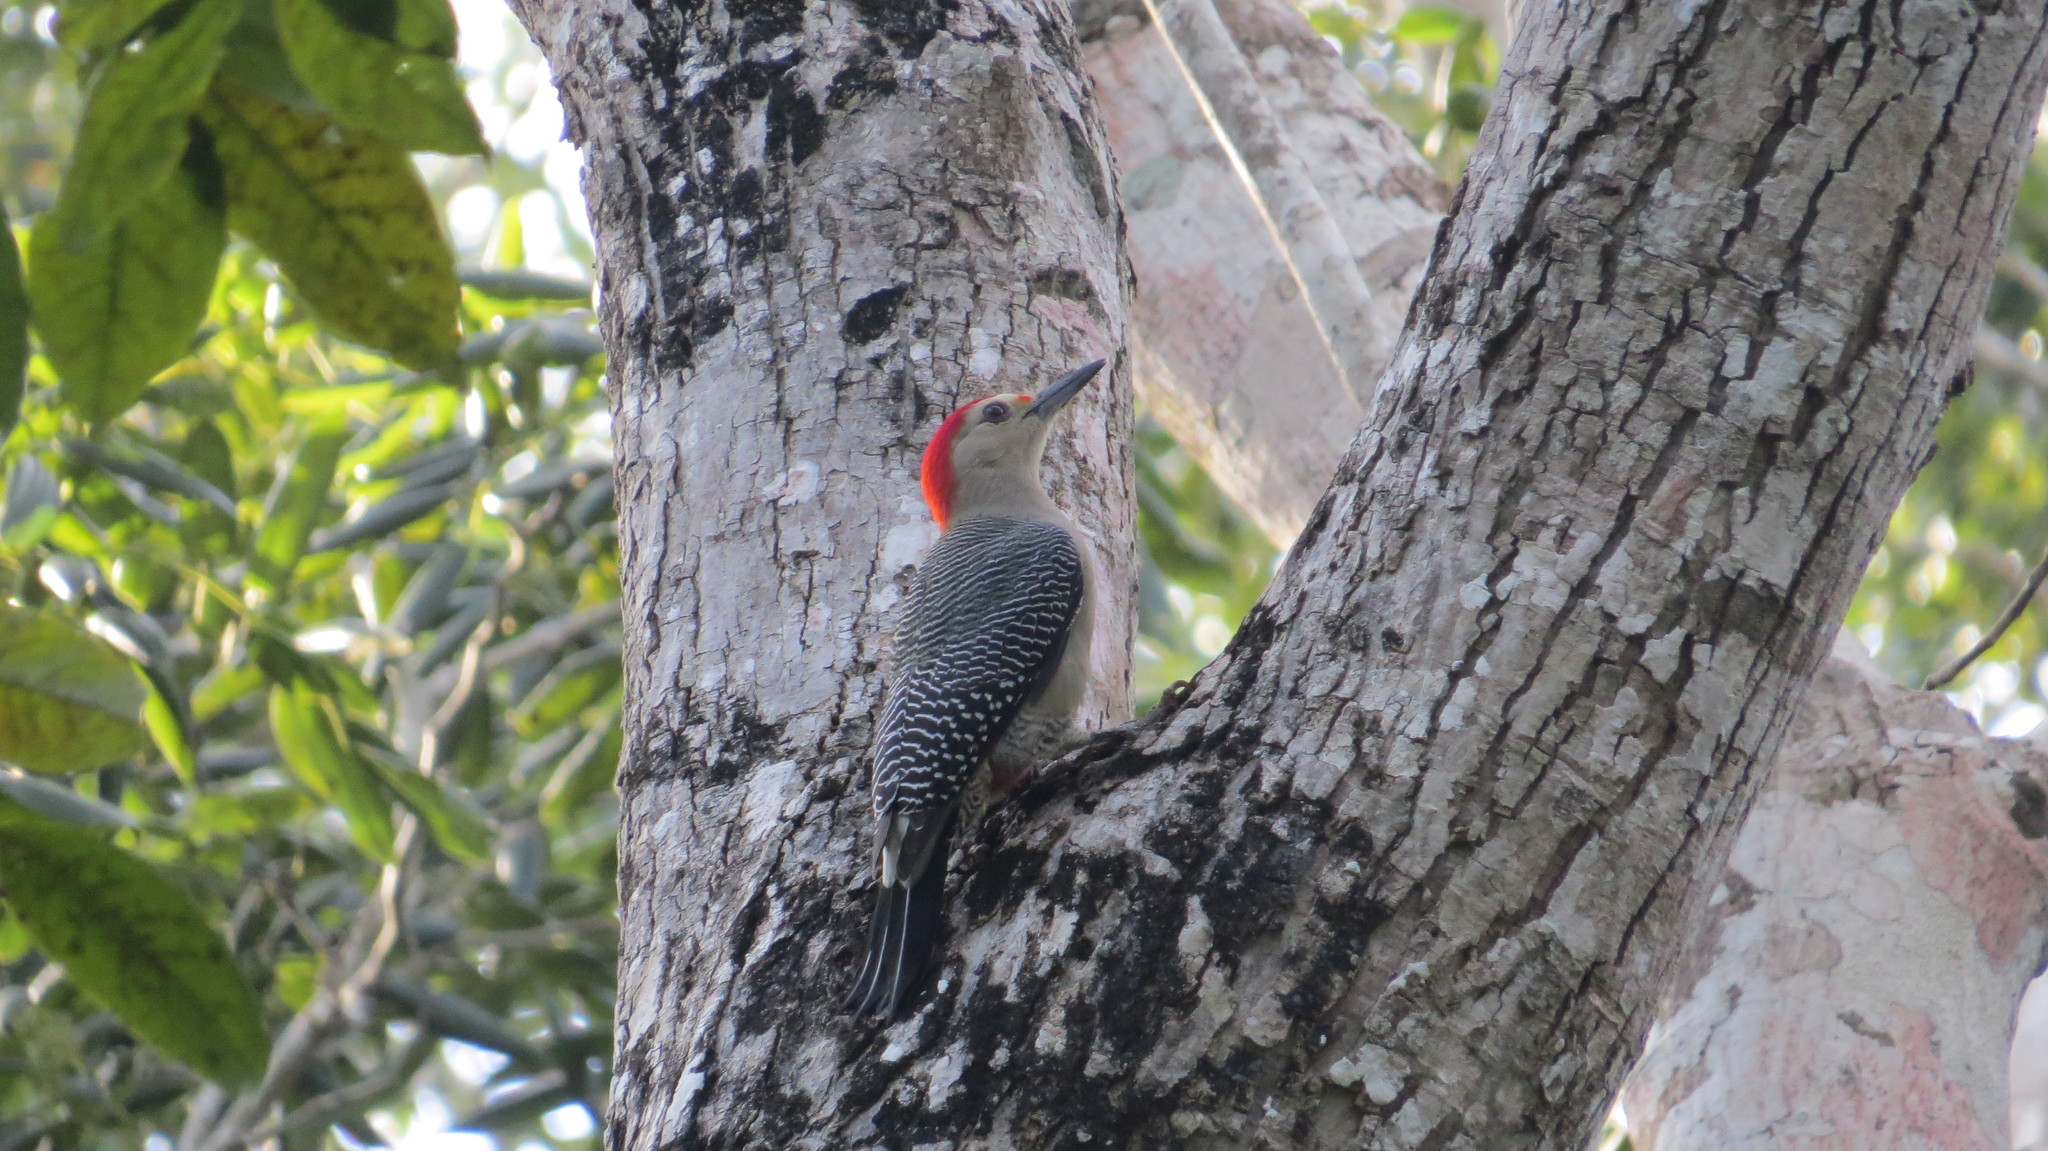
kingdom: Animalia
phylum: Chordata
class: Aves
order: Piciformes
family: Picidae
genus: Melanerpes
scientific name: Melanerpes aurifrons
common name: Golden-fronted woodpecker
